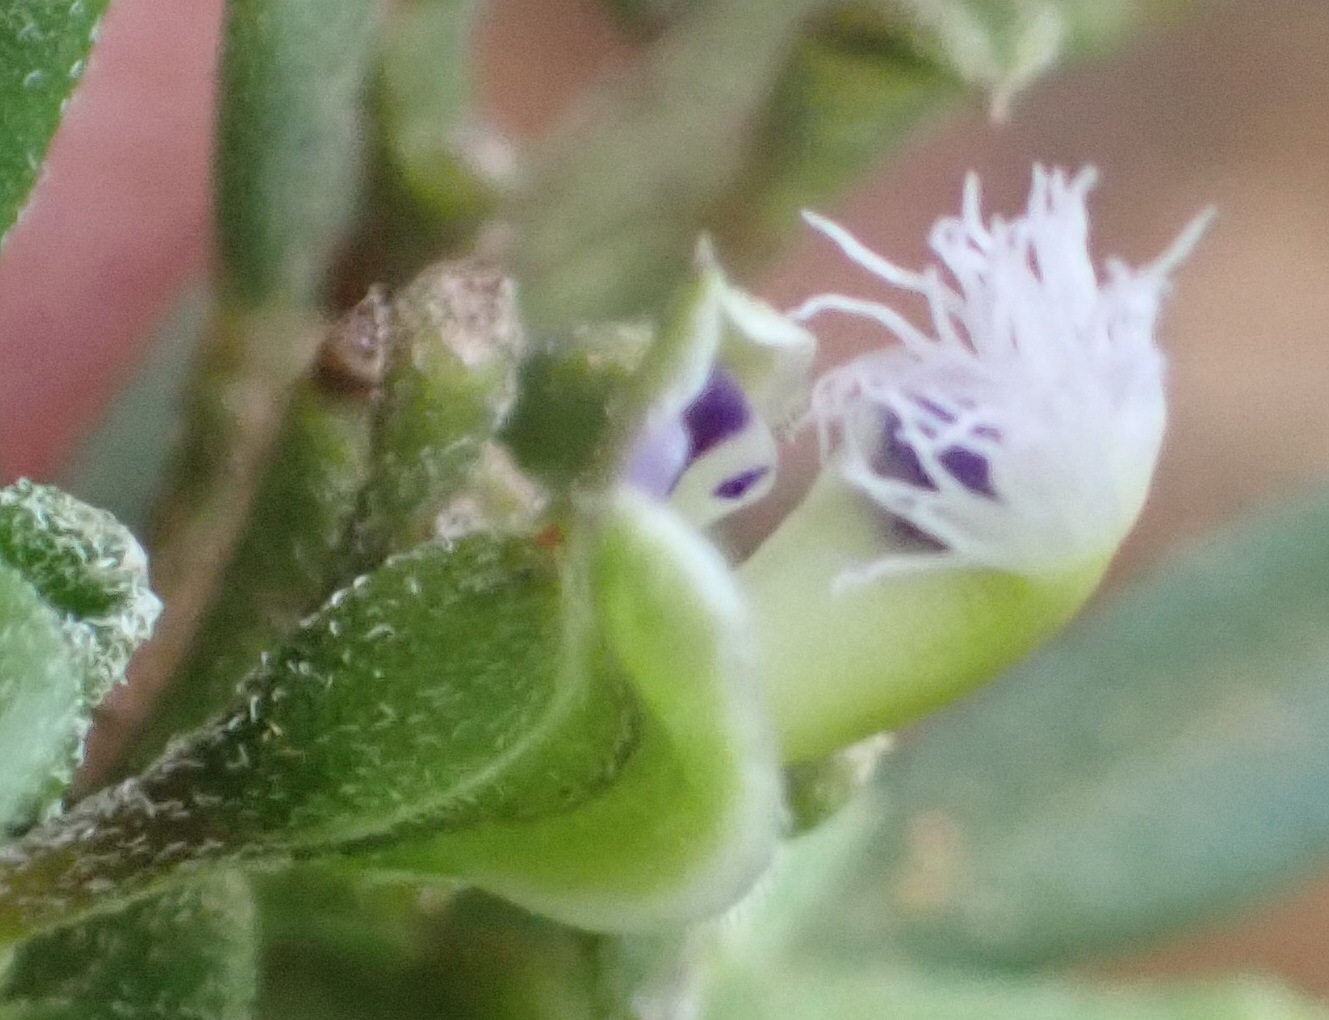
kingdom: Plantae
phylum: Tracheophyta
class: Magnoliopsida
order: Fabales
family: Polygalaceae
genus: Polygala
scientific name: Polygala asbestina
